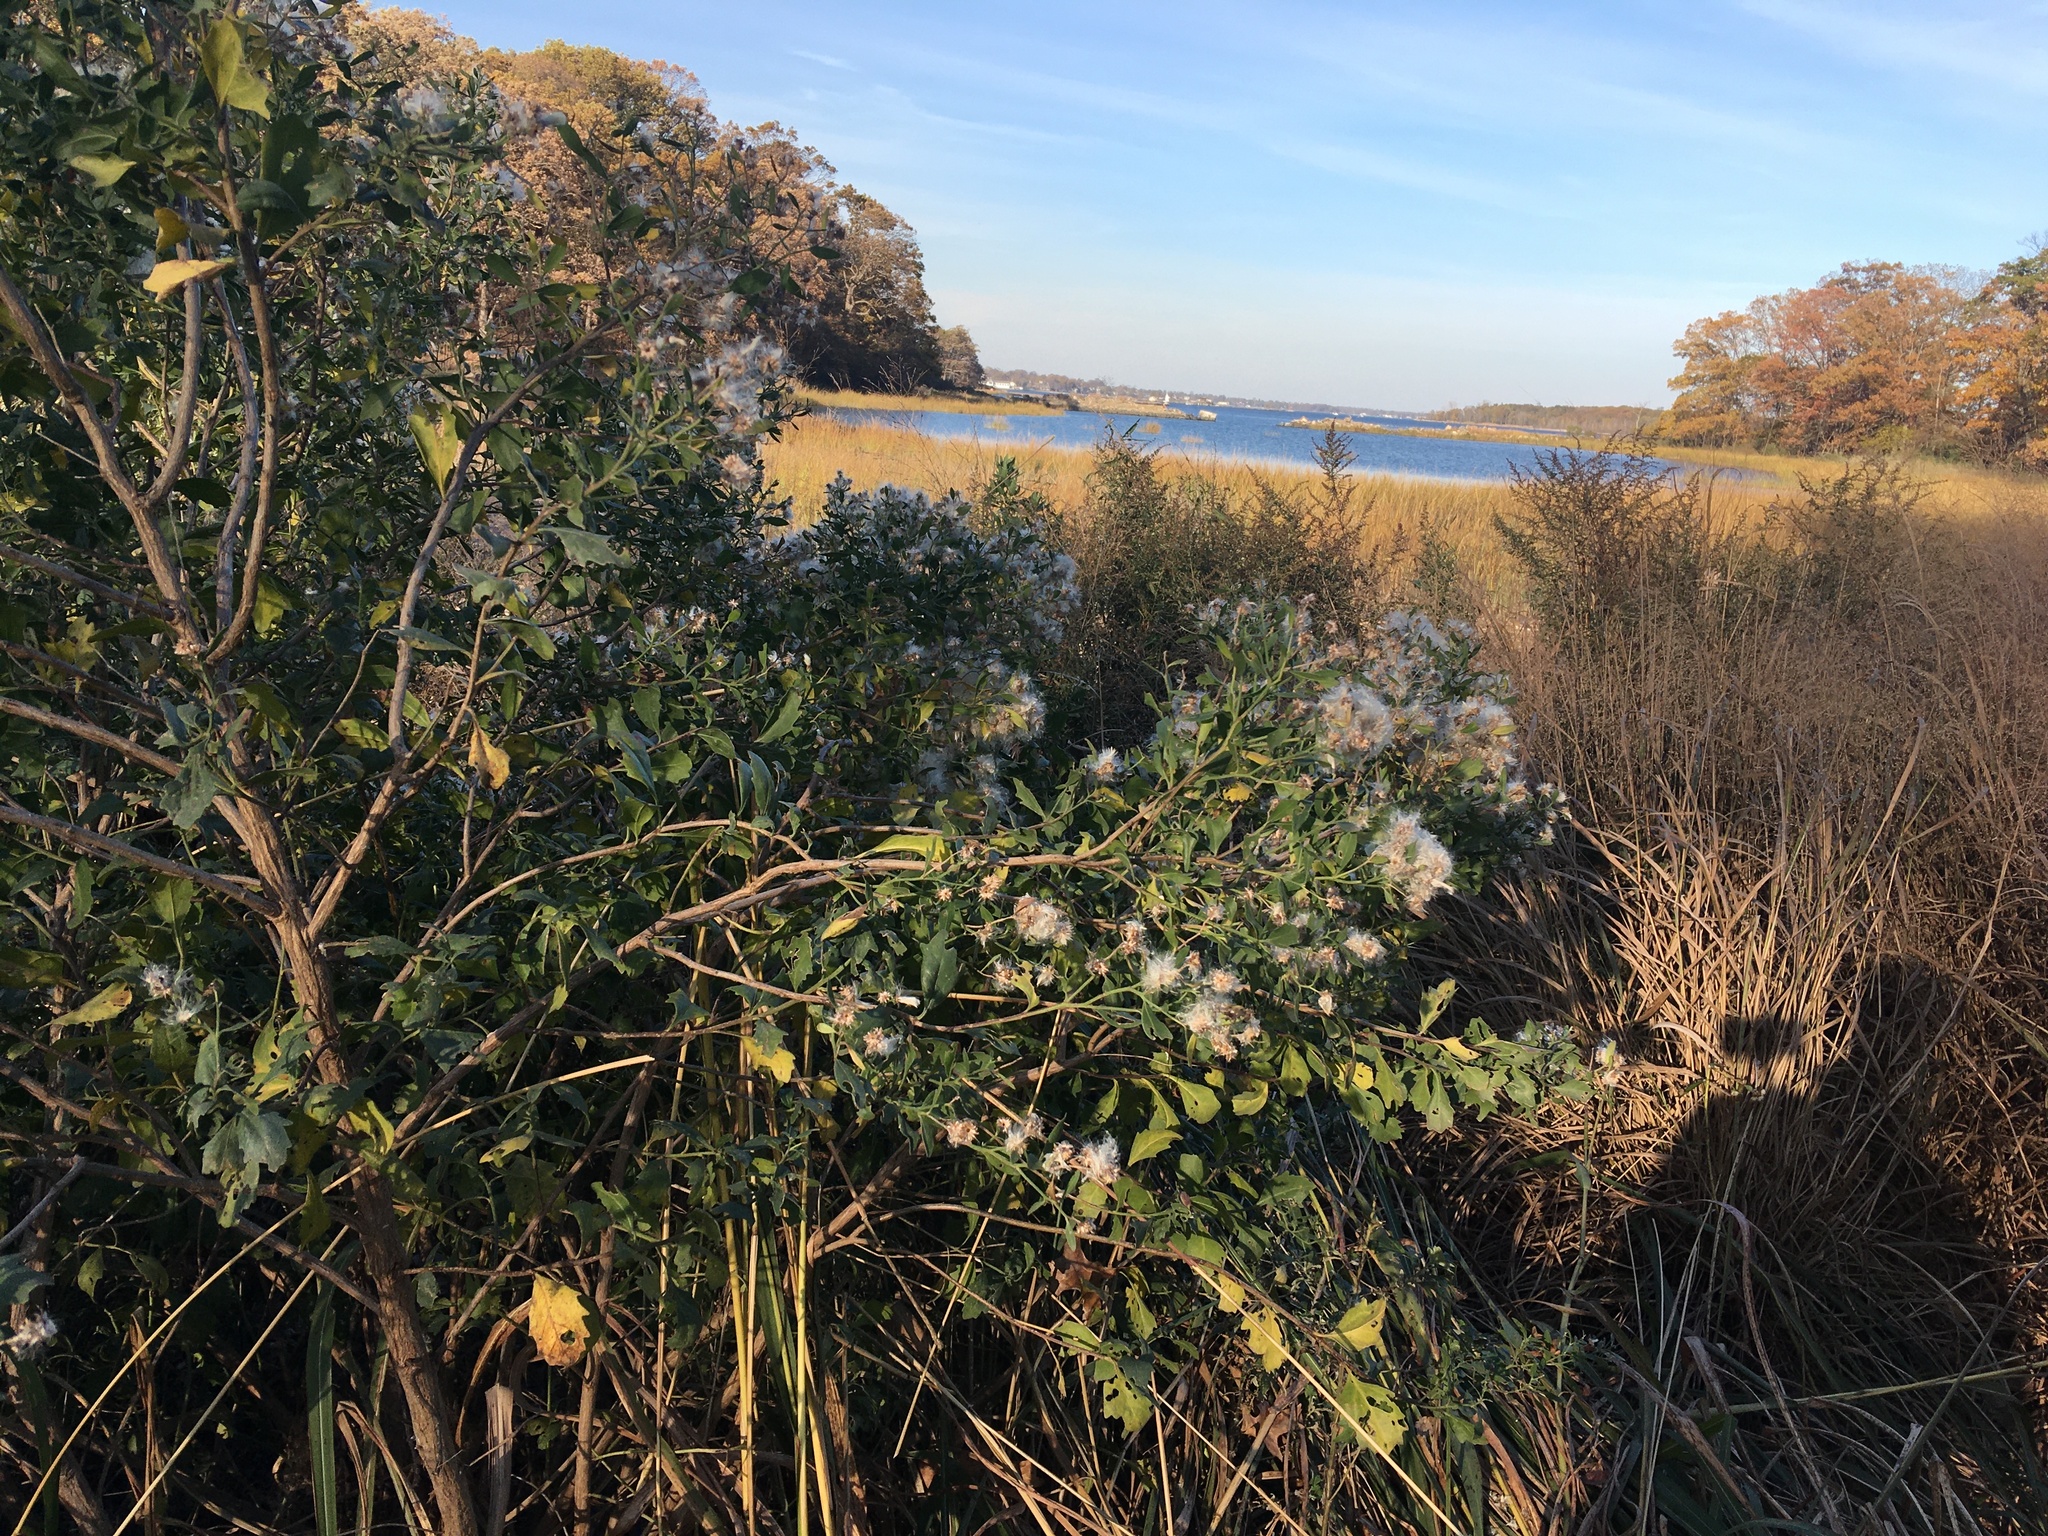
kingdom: Plantae
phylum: Tracheophyta
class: Magnoliopsida
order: Asterales
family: Asteraceae
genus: Baccharis
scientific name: Baccharis halimifolia
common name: Eastern baccharis
